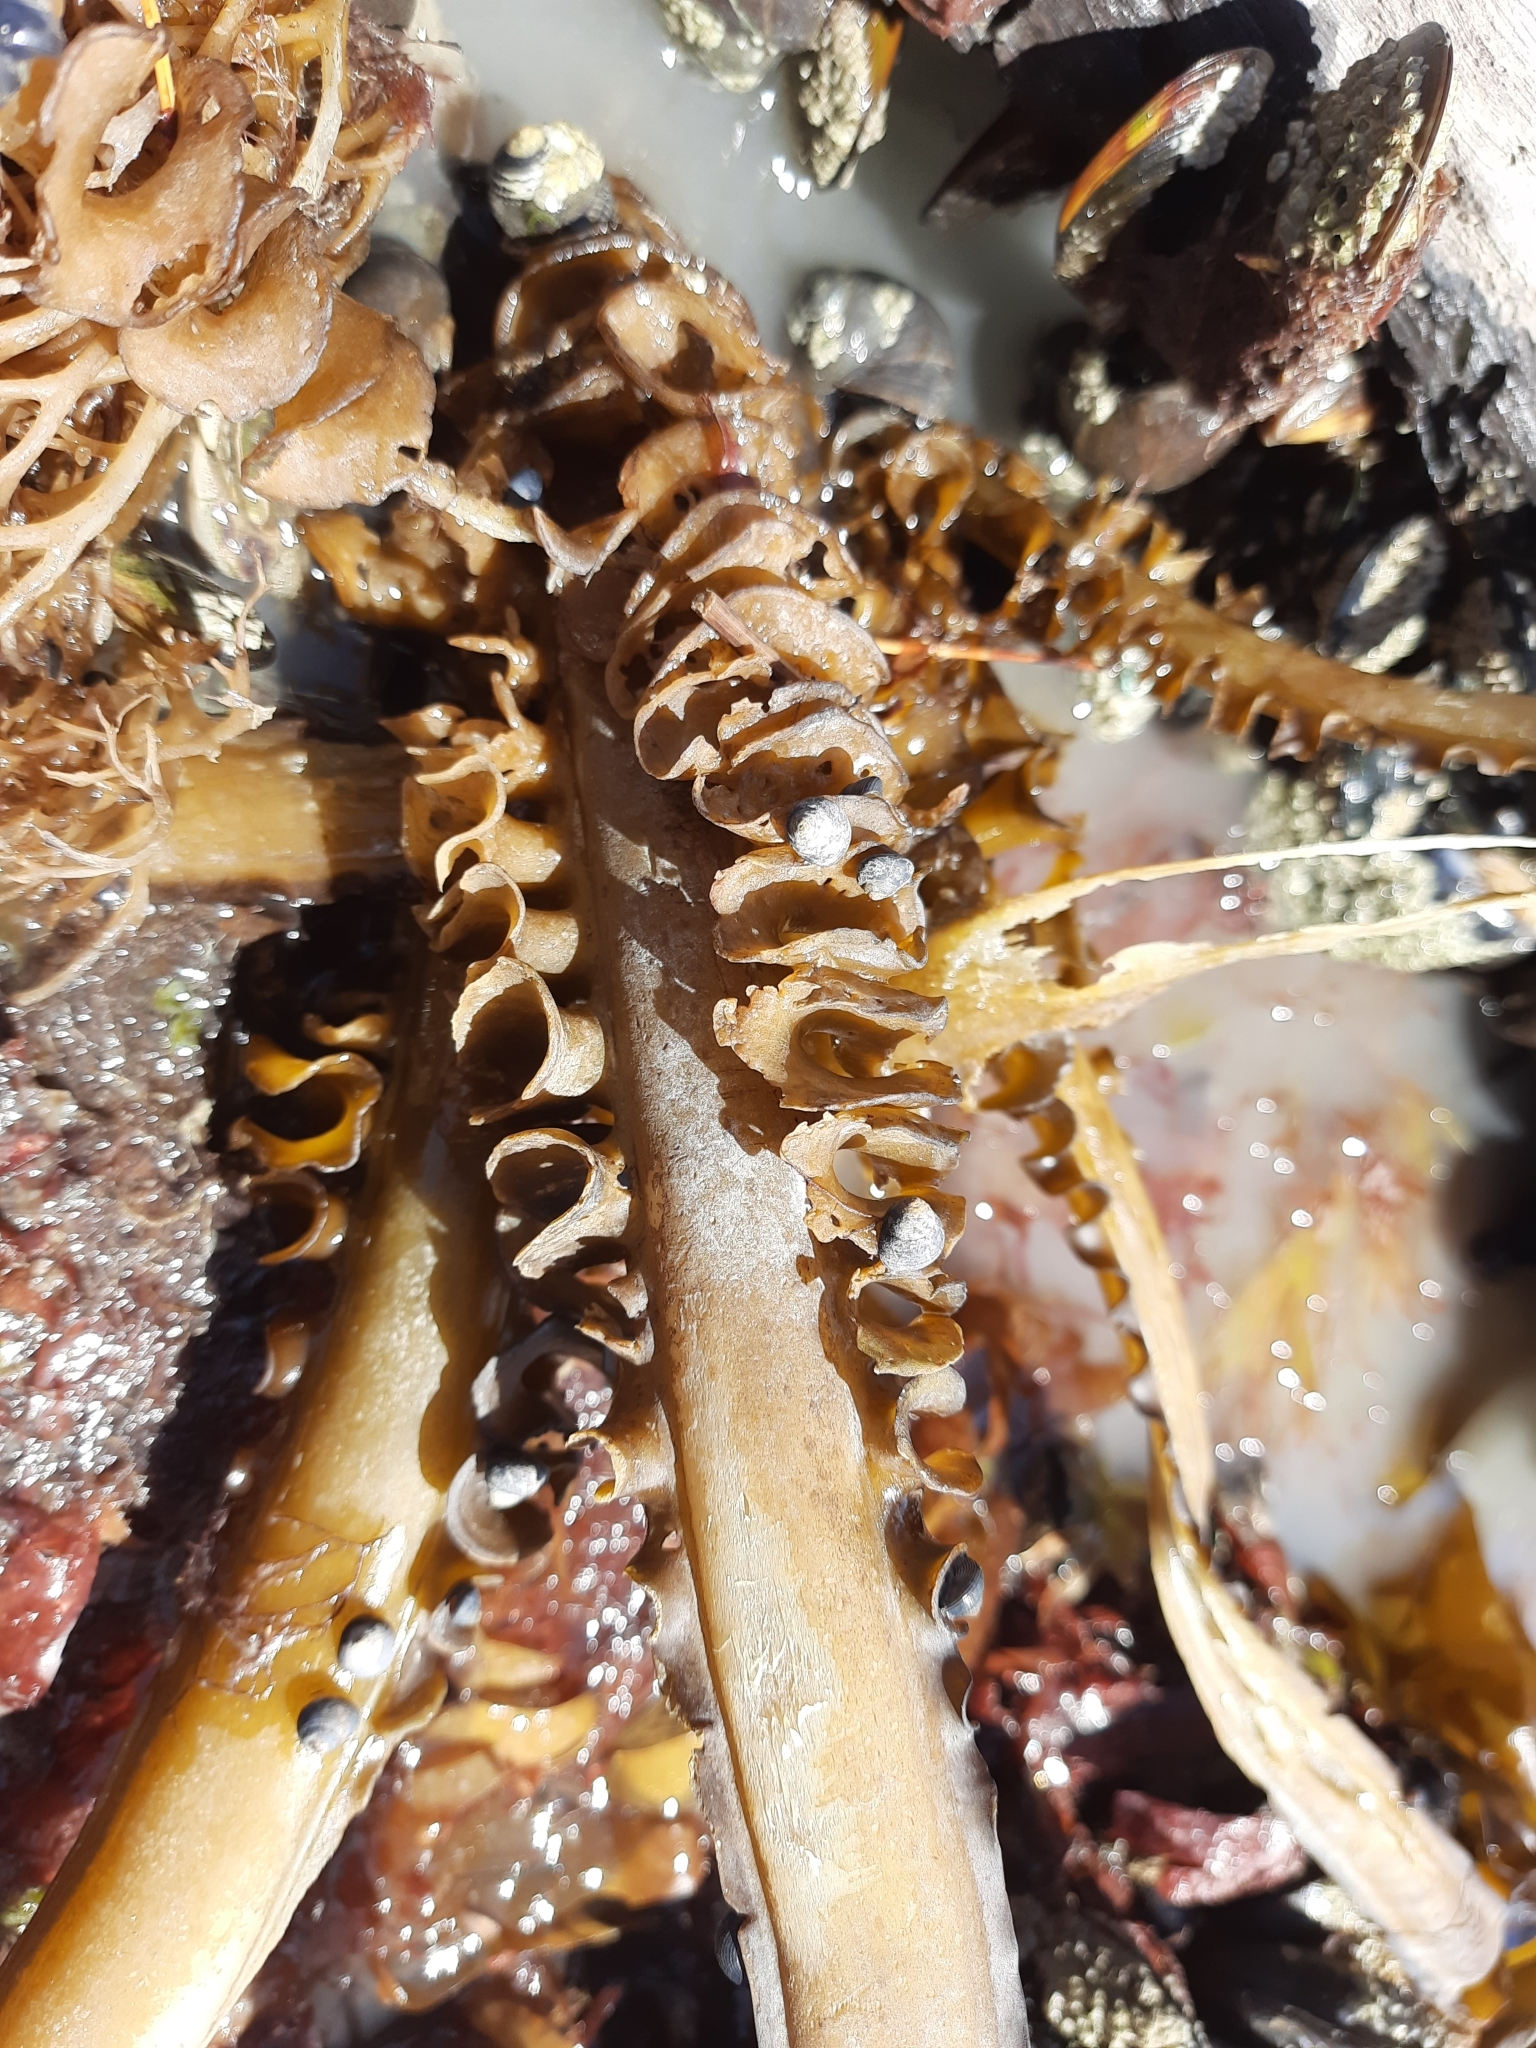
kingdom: Chromista
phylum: Ochrophyta
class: Phaeophyceae
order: Laminariales
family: Alariaceae
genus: Undaria
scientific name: Undaria pinnatifida
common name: Asian kelp
